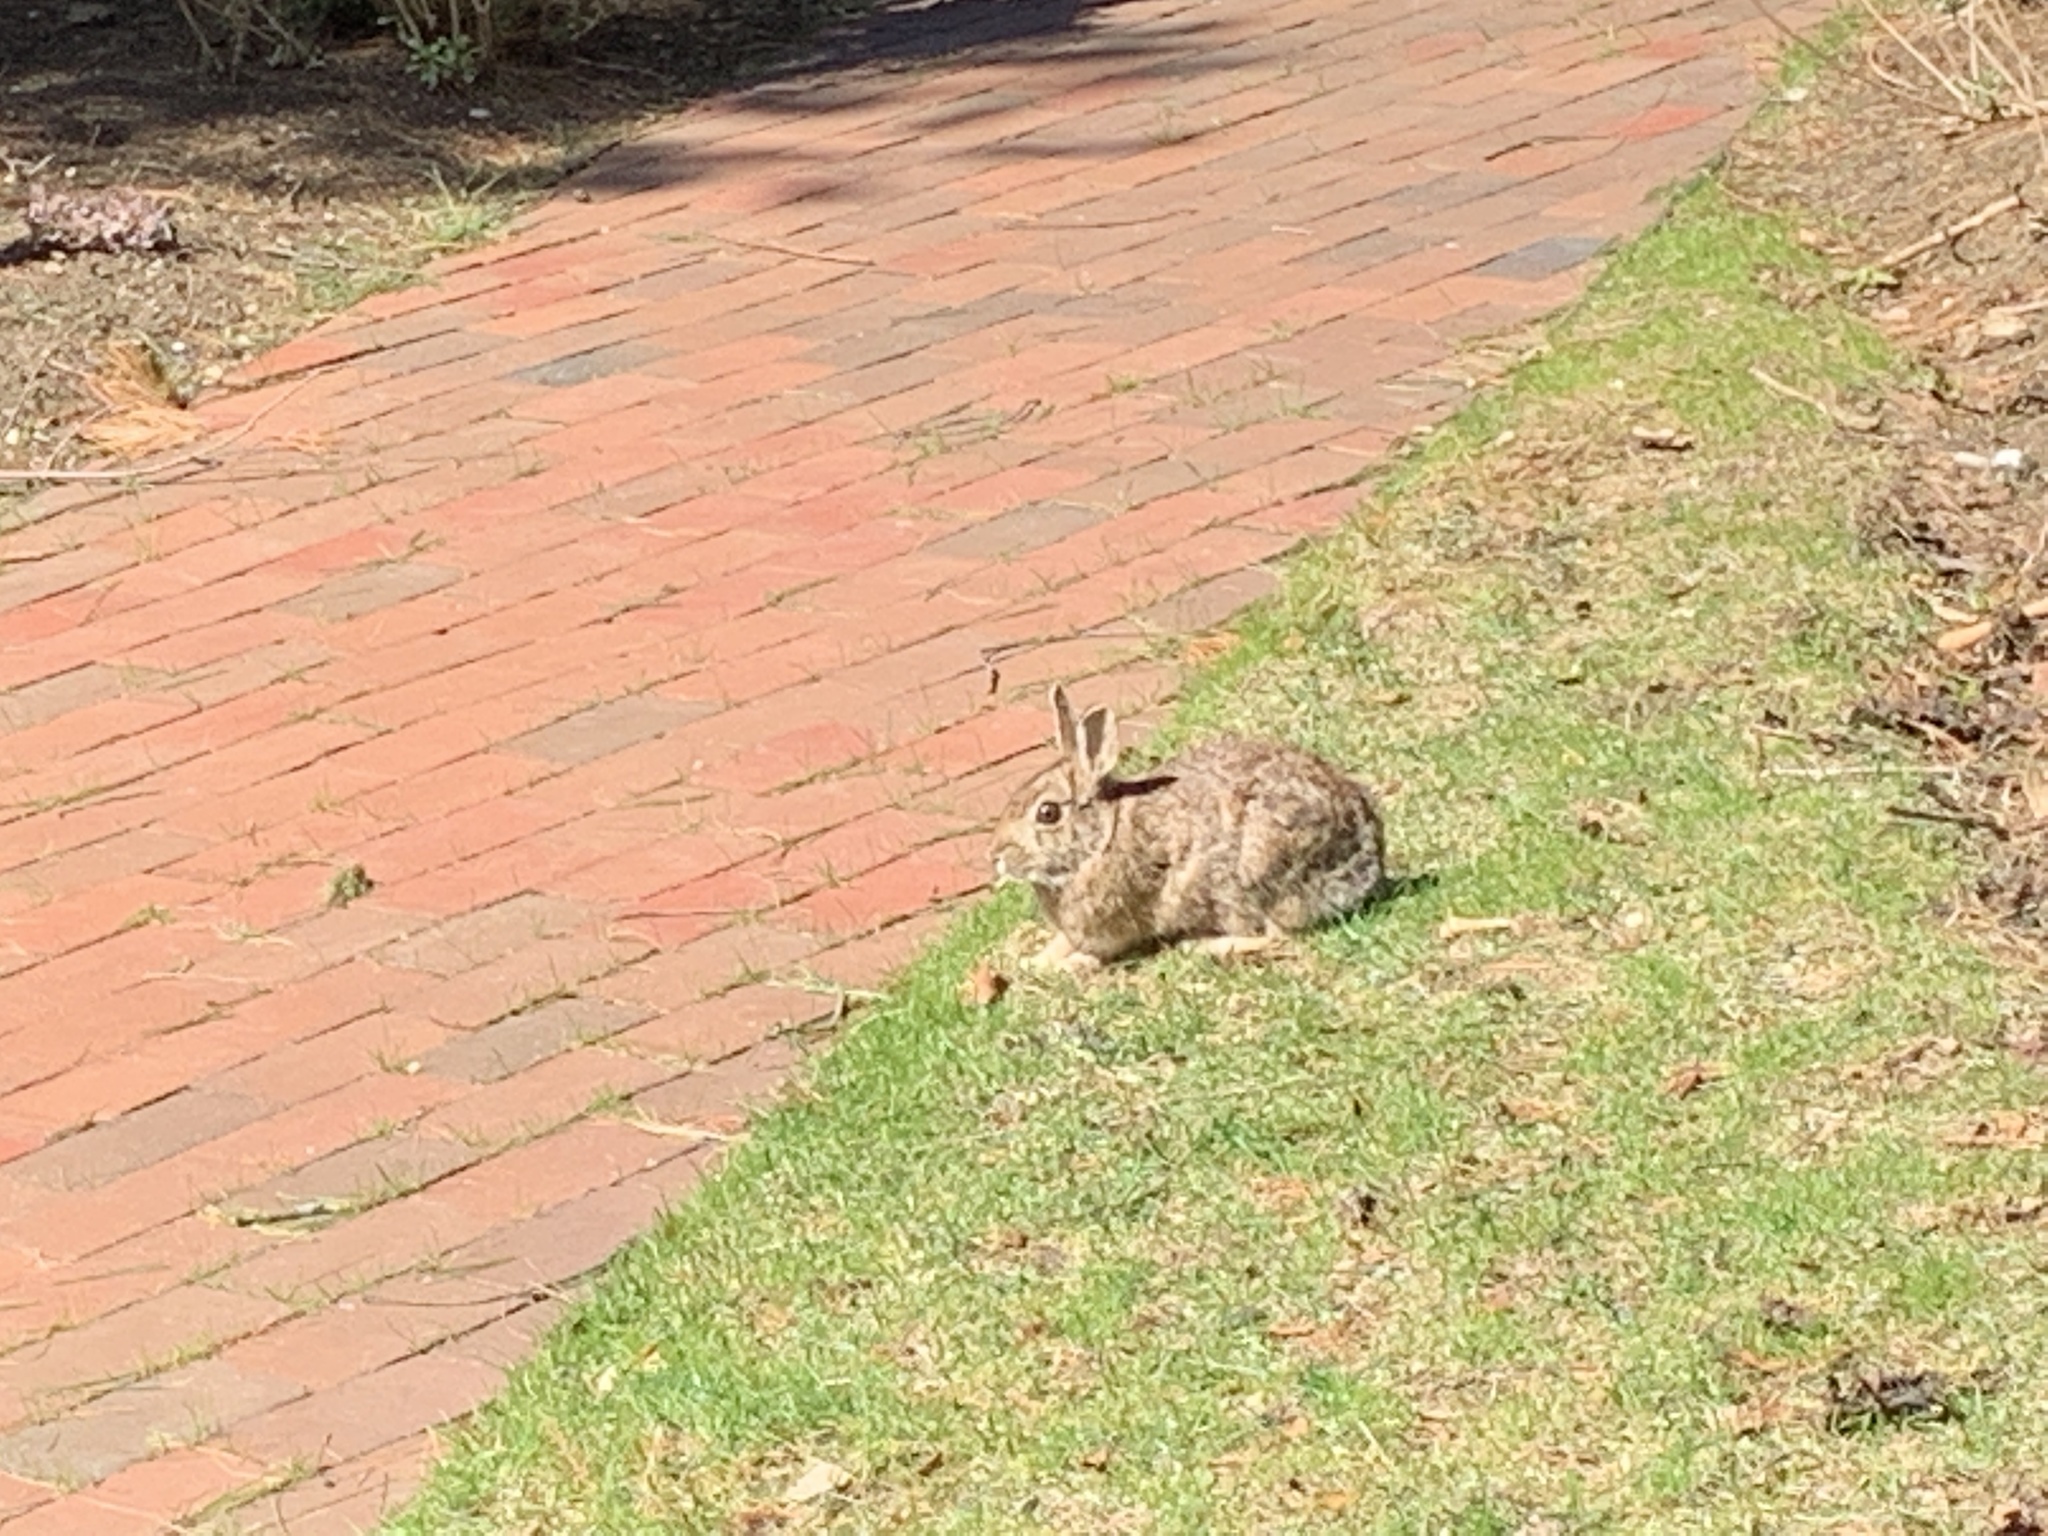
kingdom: Animalia
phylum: Chordata
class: Mammalia
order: Lagomorpha
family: Leporidae
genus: Sylvilagus
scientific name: Sylvilagus floridanus
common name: Eastern cottontail
